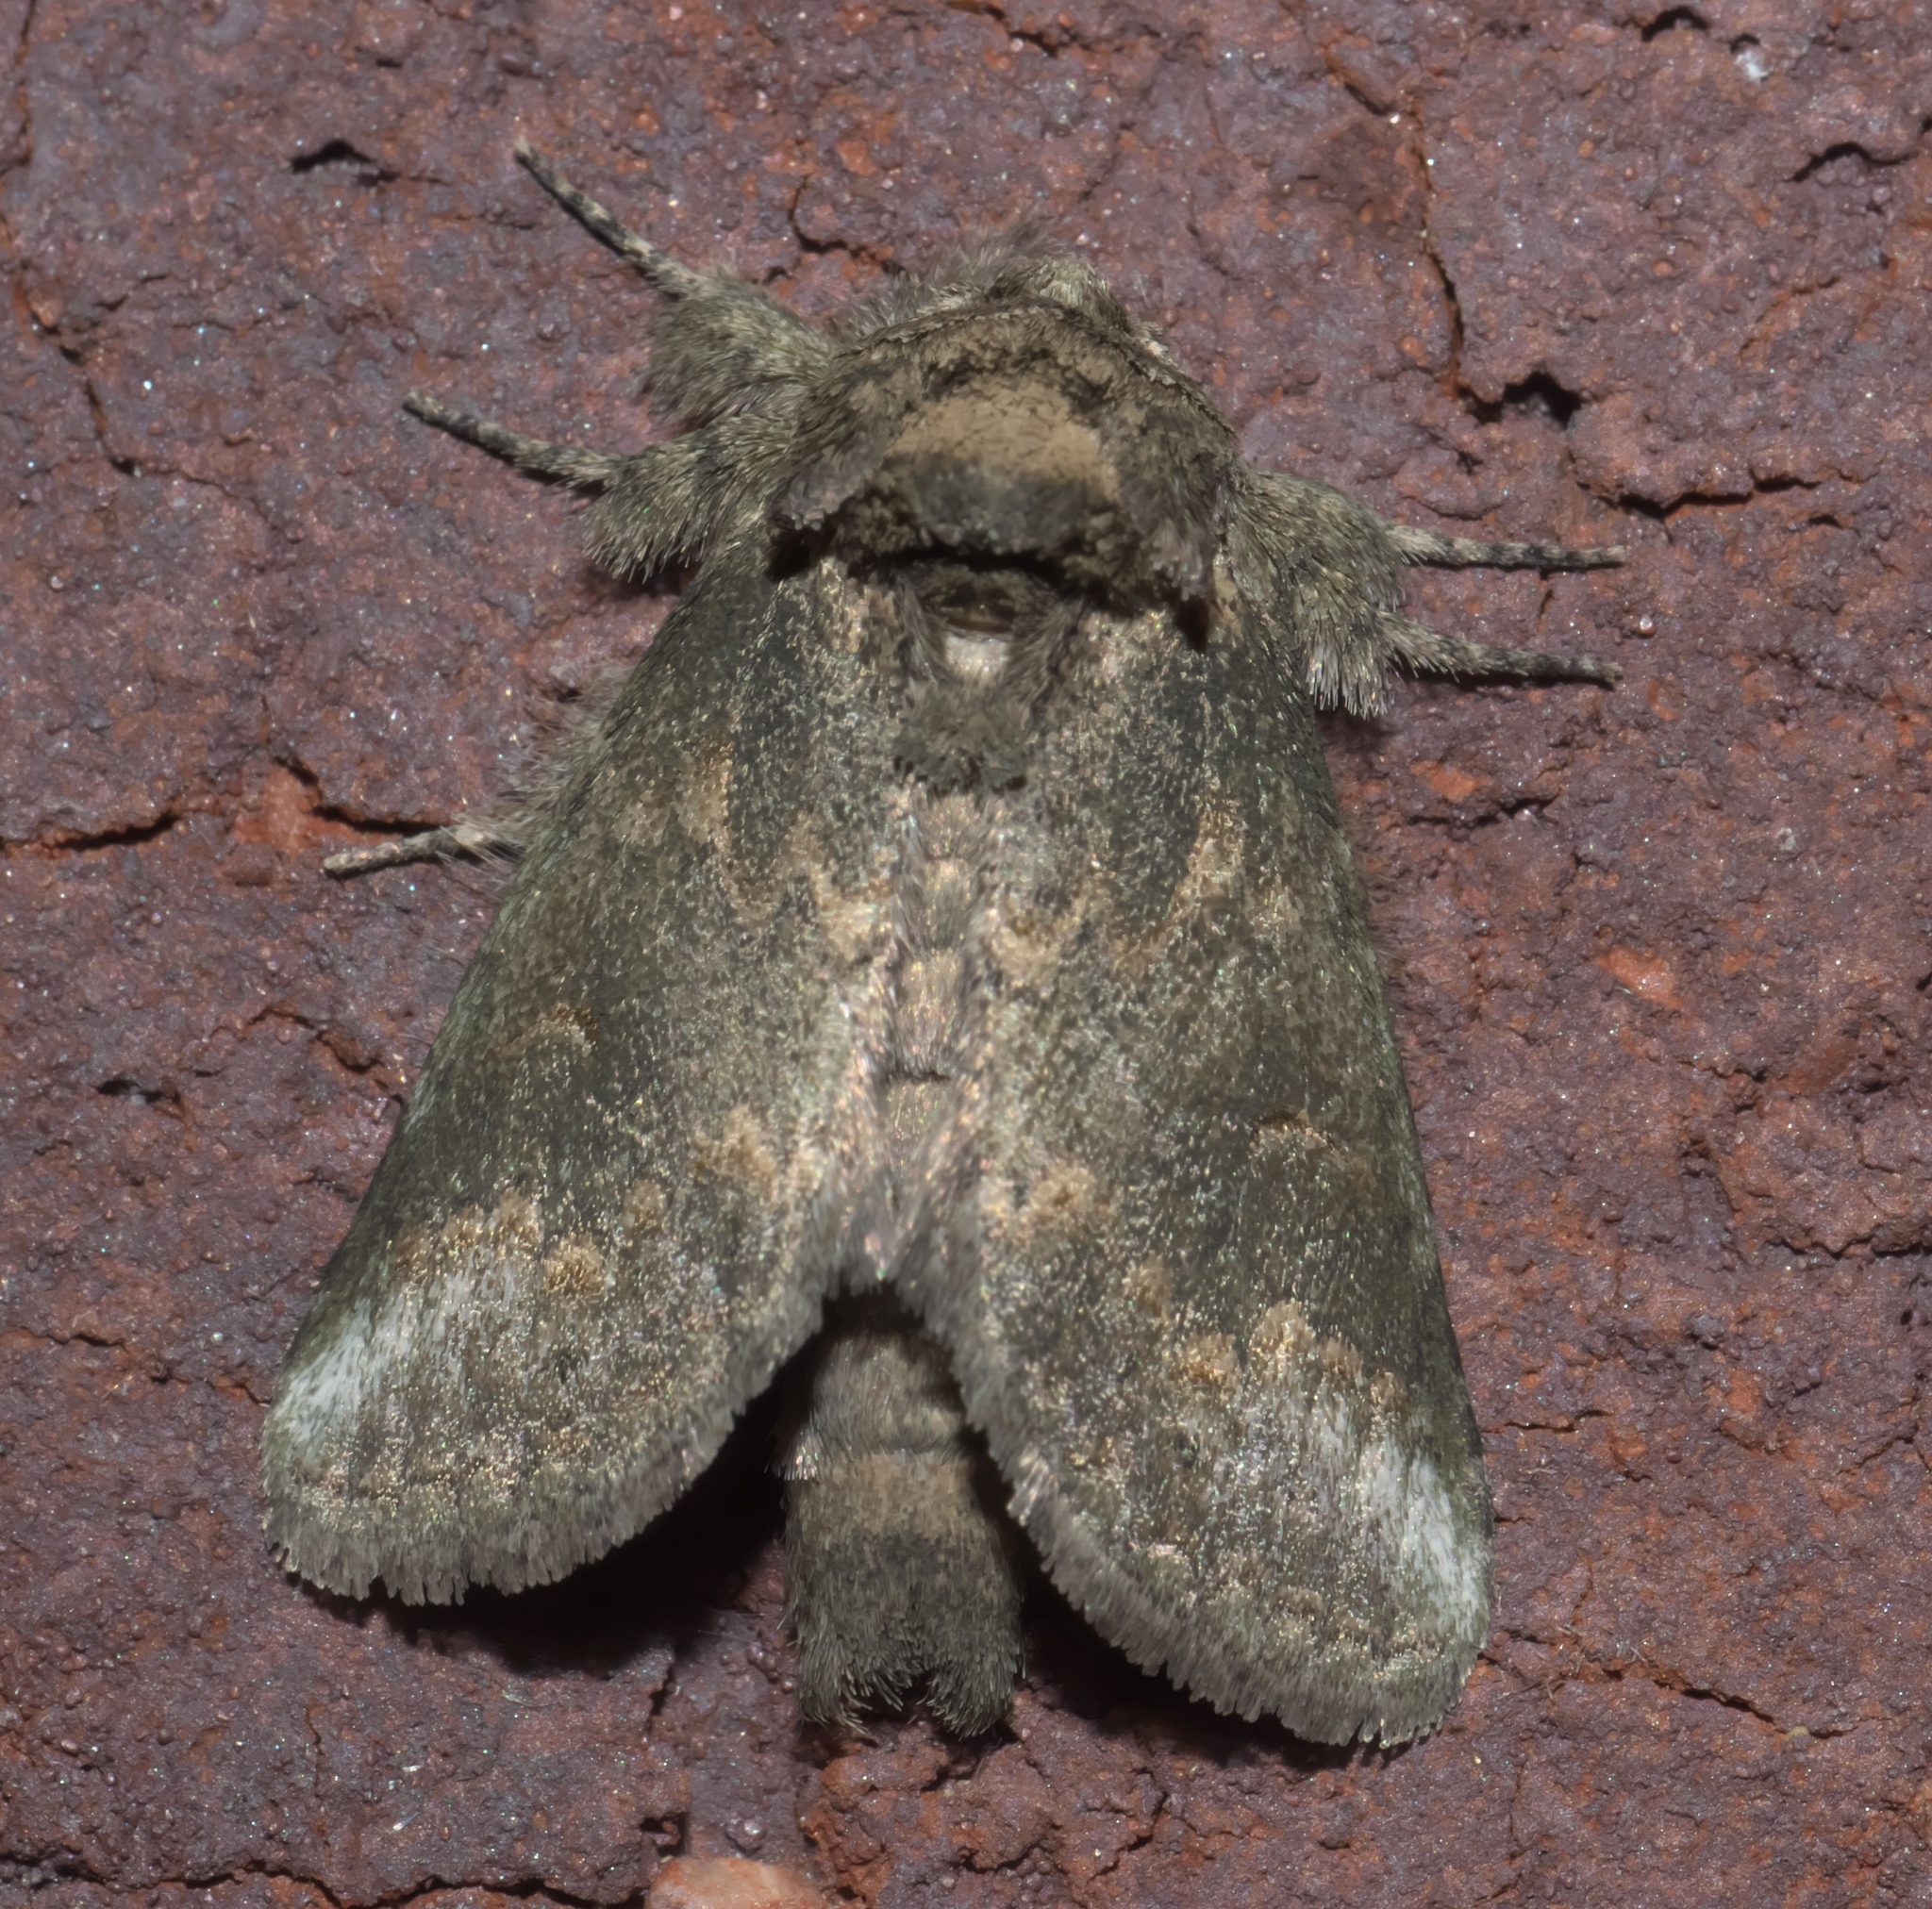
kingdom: Animalia
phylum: Arthropoda
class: Insecta
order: Lepidoptera
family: Notodontidae
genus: Rifargia
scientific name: Rifargia
